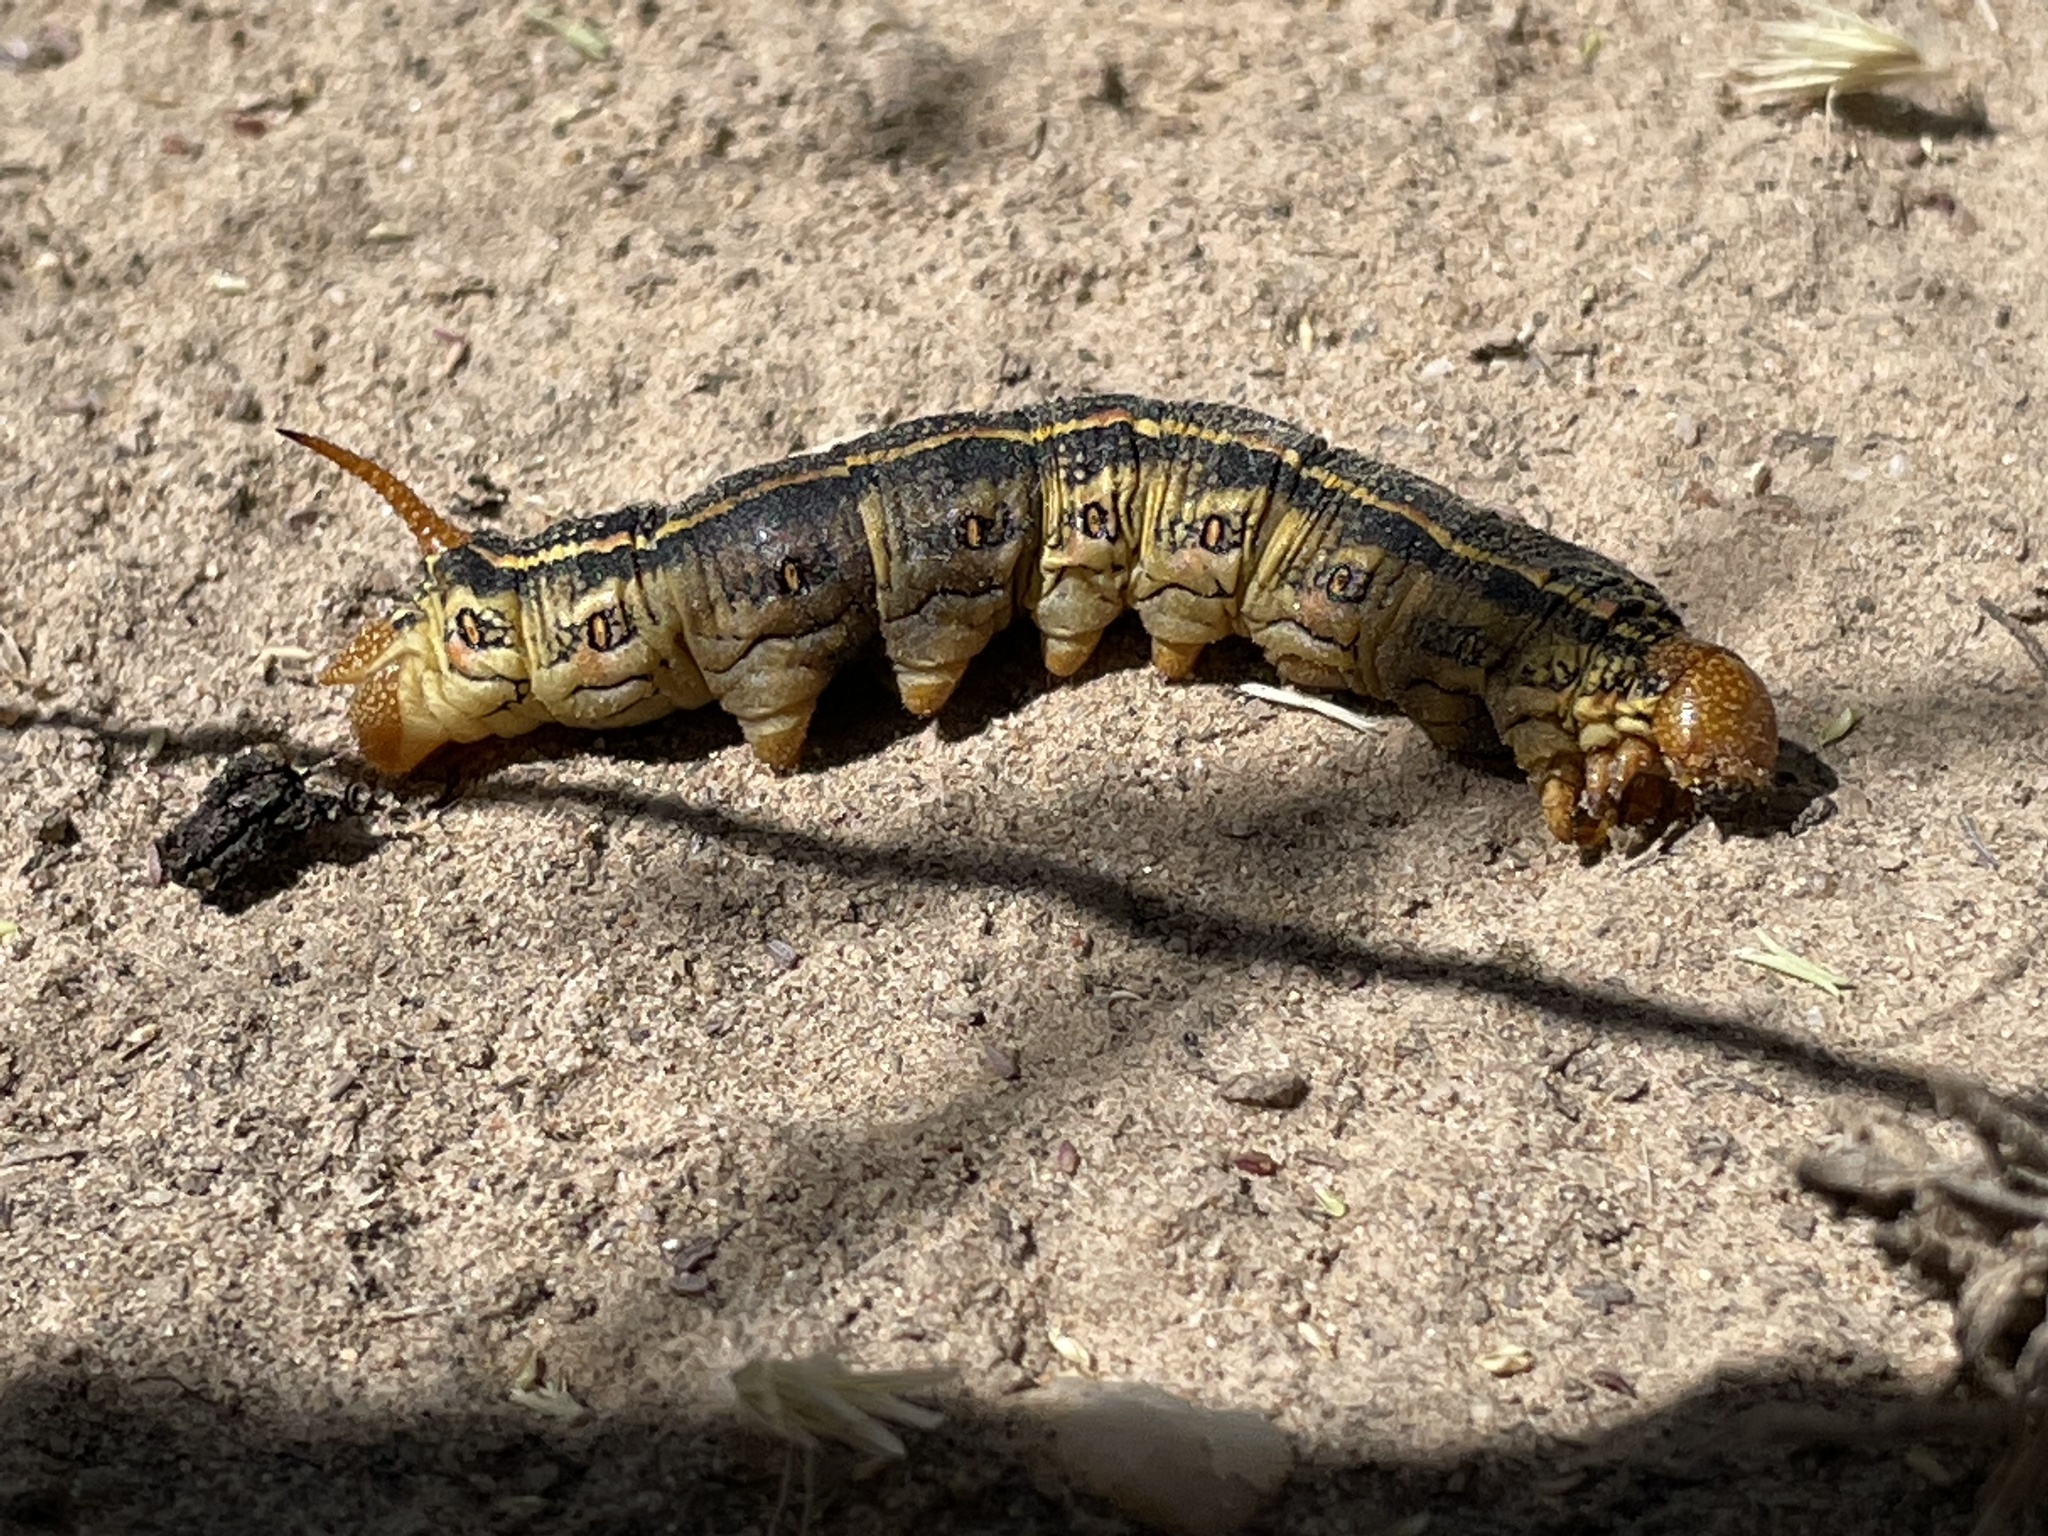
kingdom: Animalia
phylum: Arthropoda
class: Insecta
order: Lepidoptera
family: Sphingidae
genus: Hyles
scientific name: Hyles lineata
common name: White-lined sphinx
